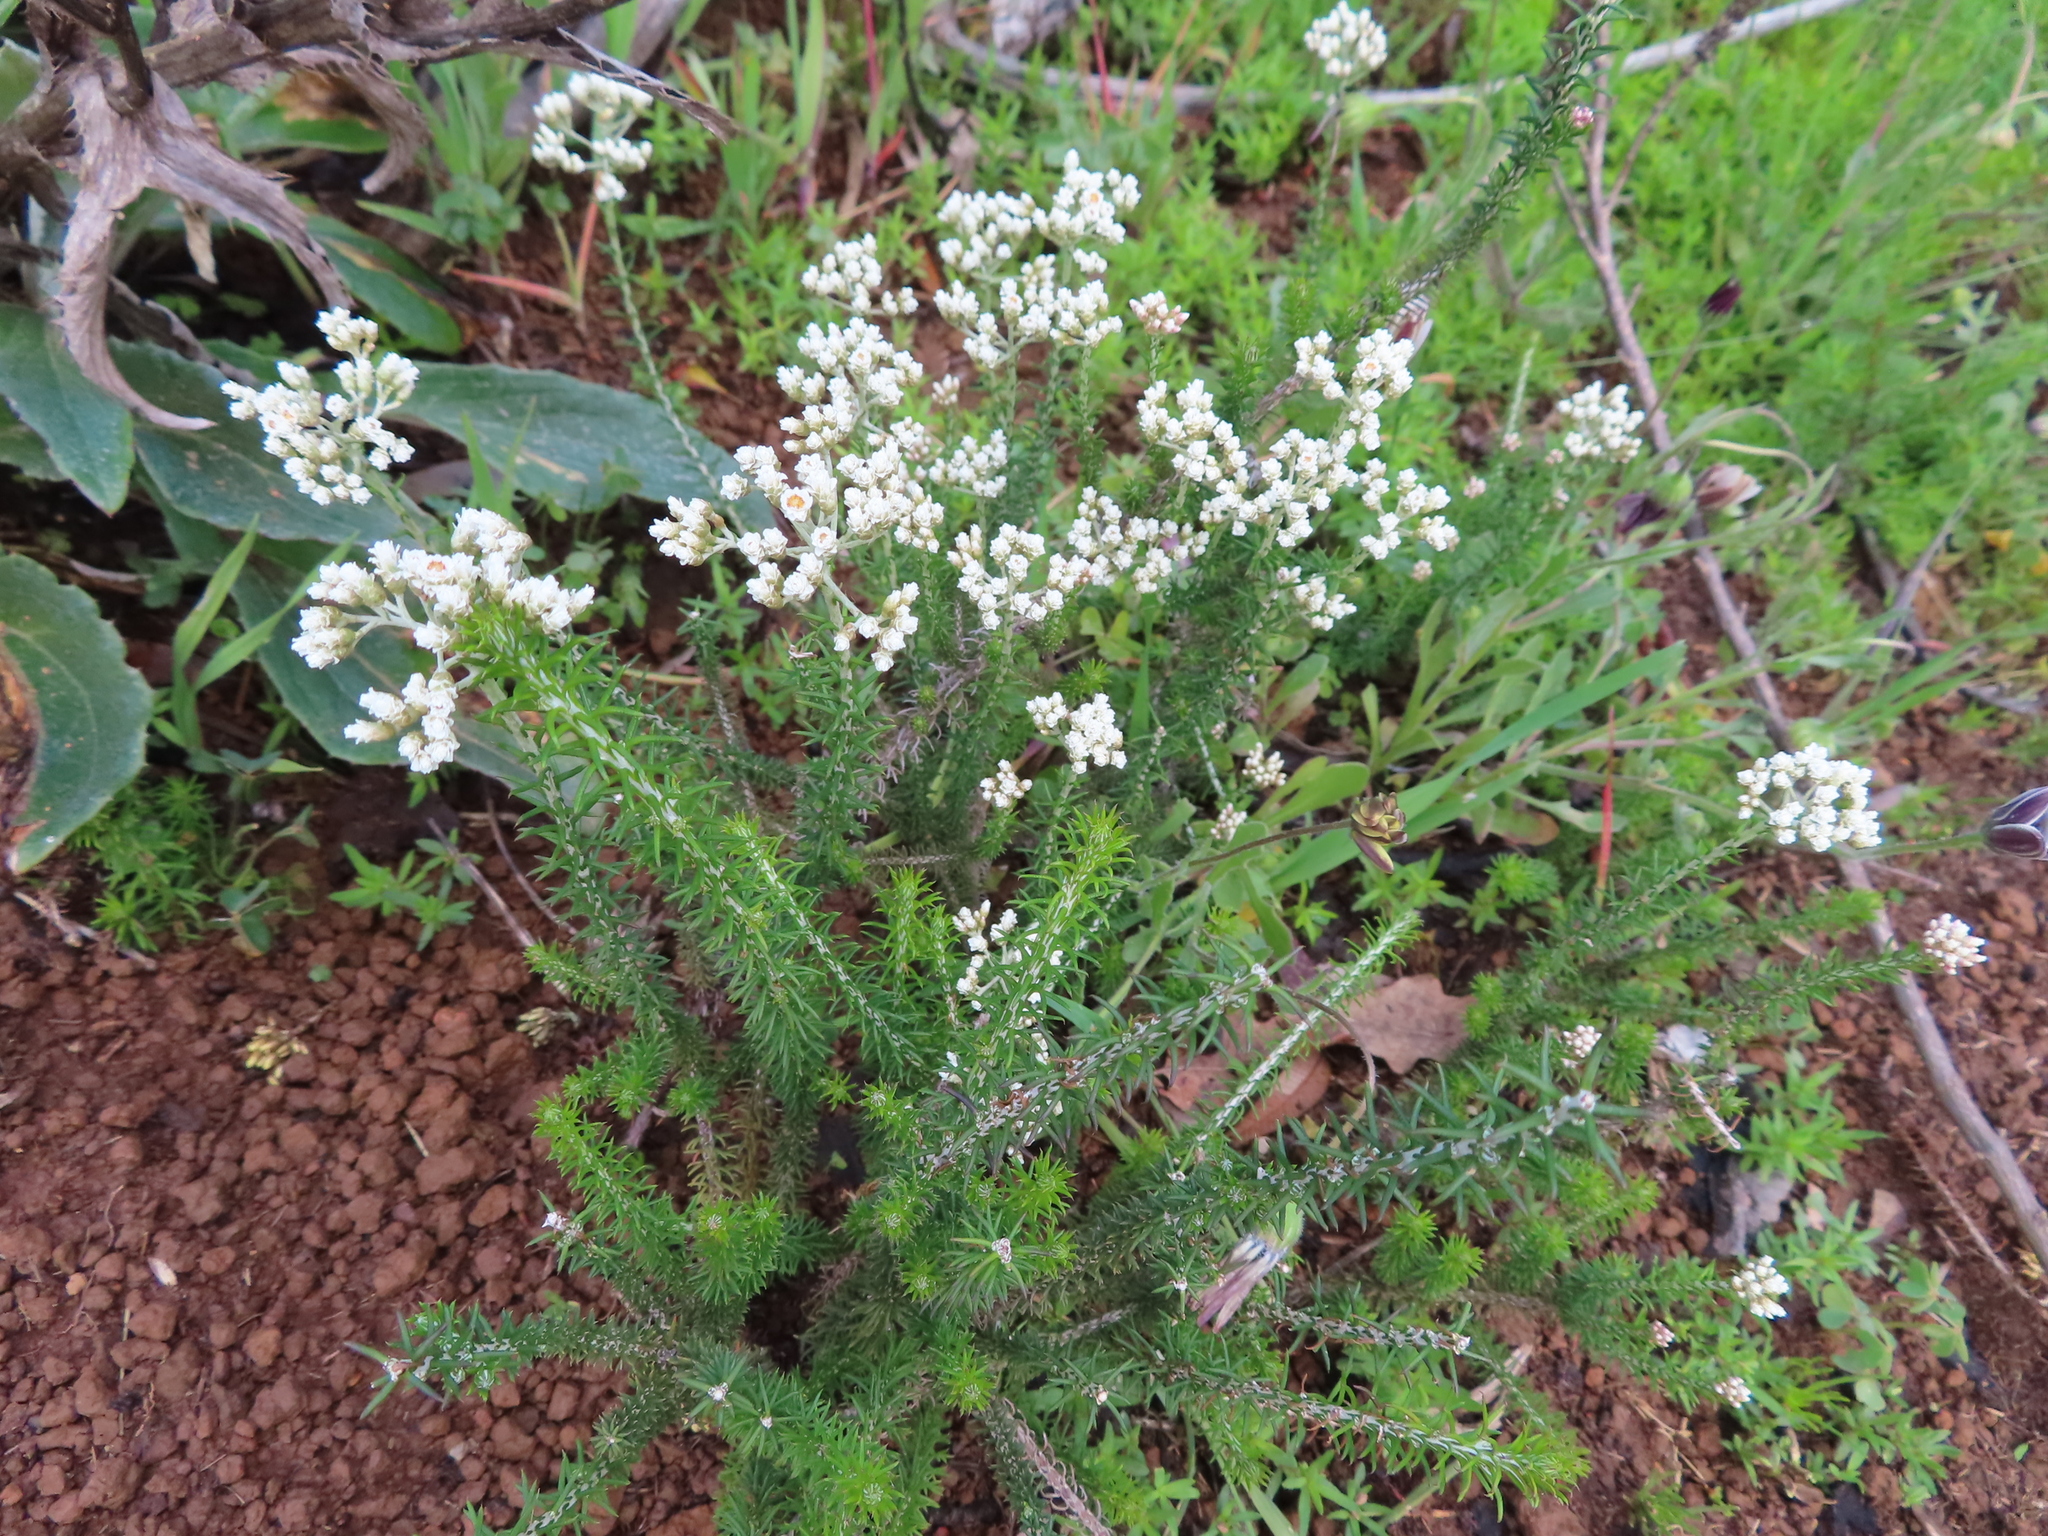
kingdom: Plantae
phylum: Tracheophyta
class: Magnoliopsida
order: Asterales
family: Asteraceae
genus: Helichrysum
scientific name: Helichrysum teretifolium
